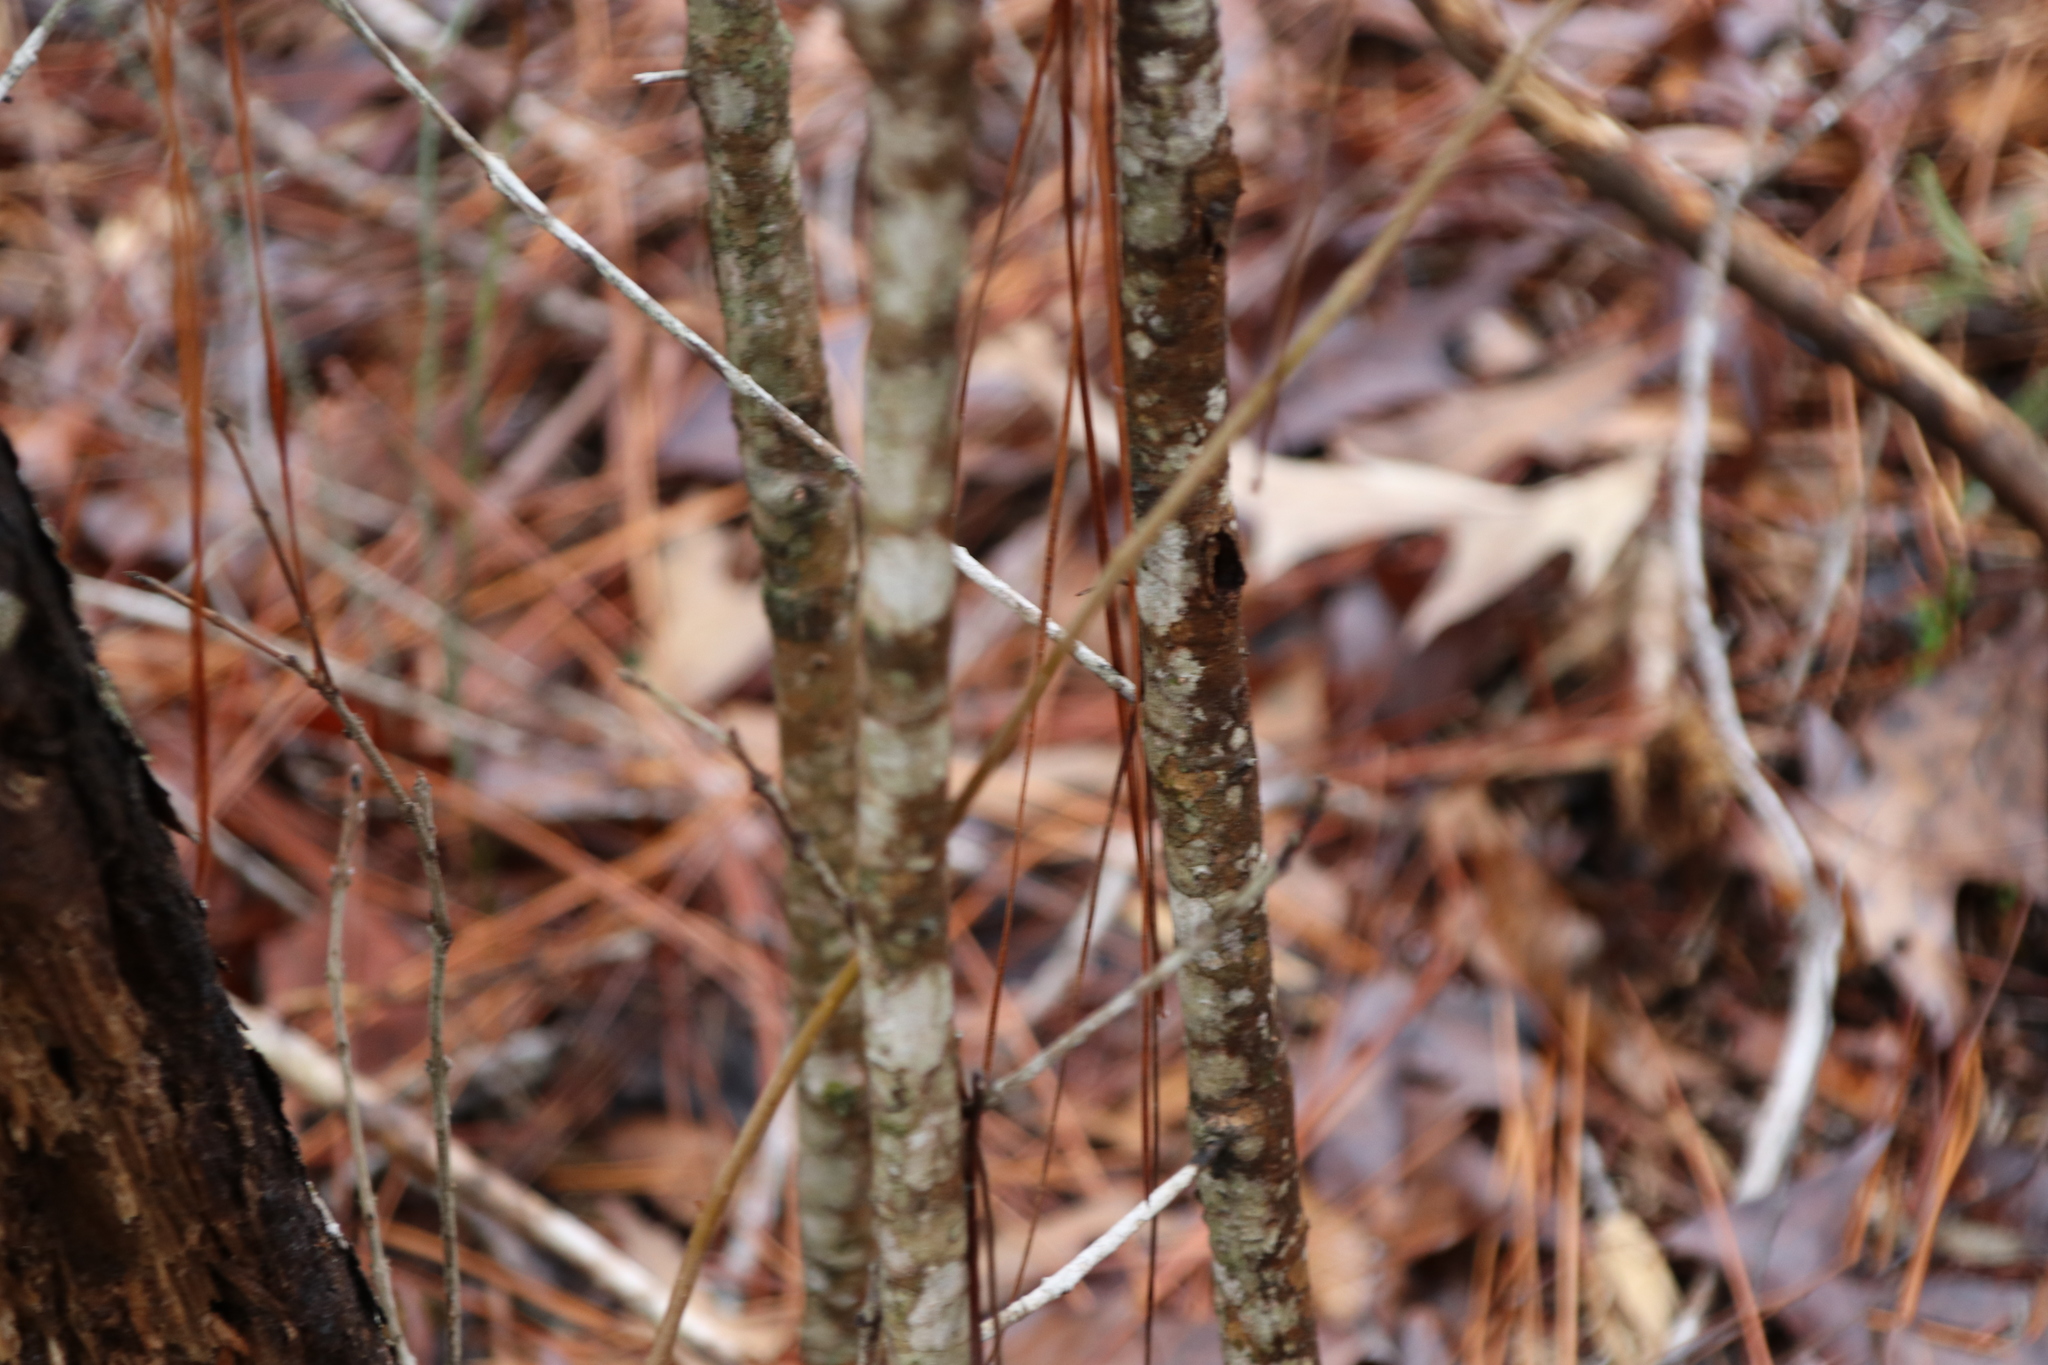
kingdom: Plantae
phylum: Tracheophyta
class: Magnoliopsida
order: Lamiales
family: Oleaceae
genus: Cartrema
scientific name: Cartrema americana
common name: Devilwood
